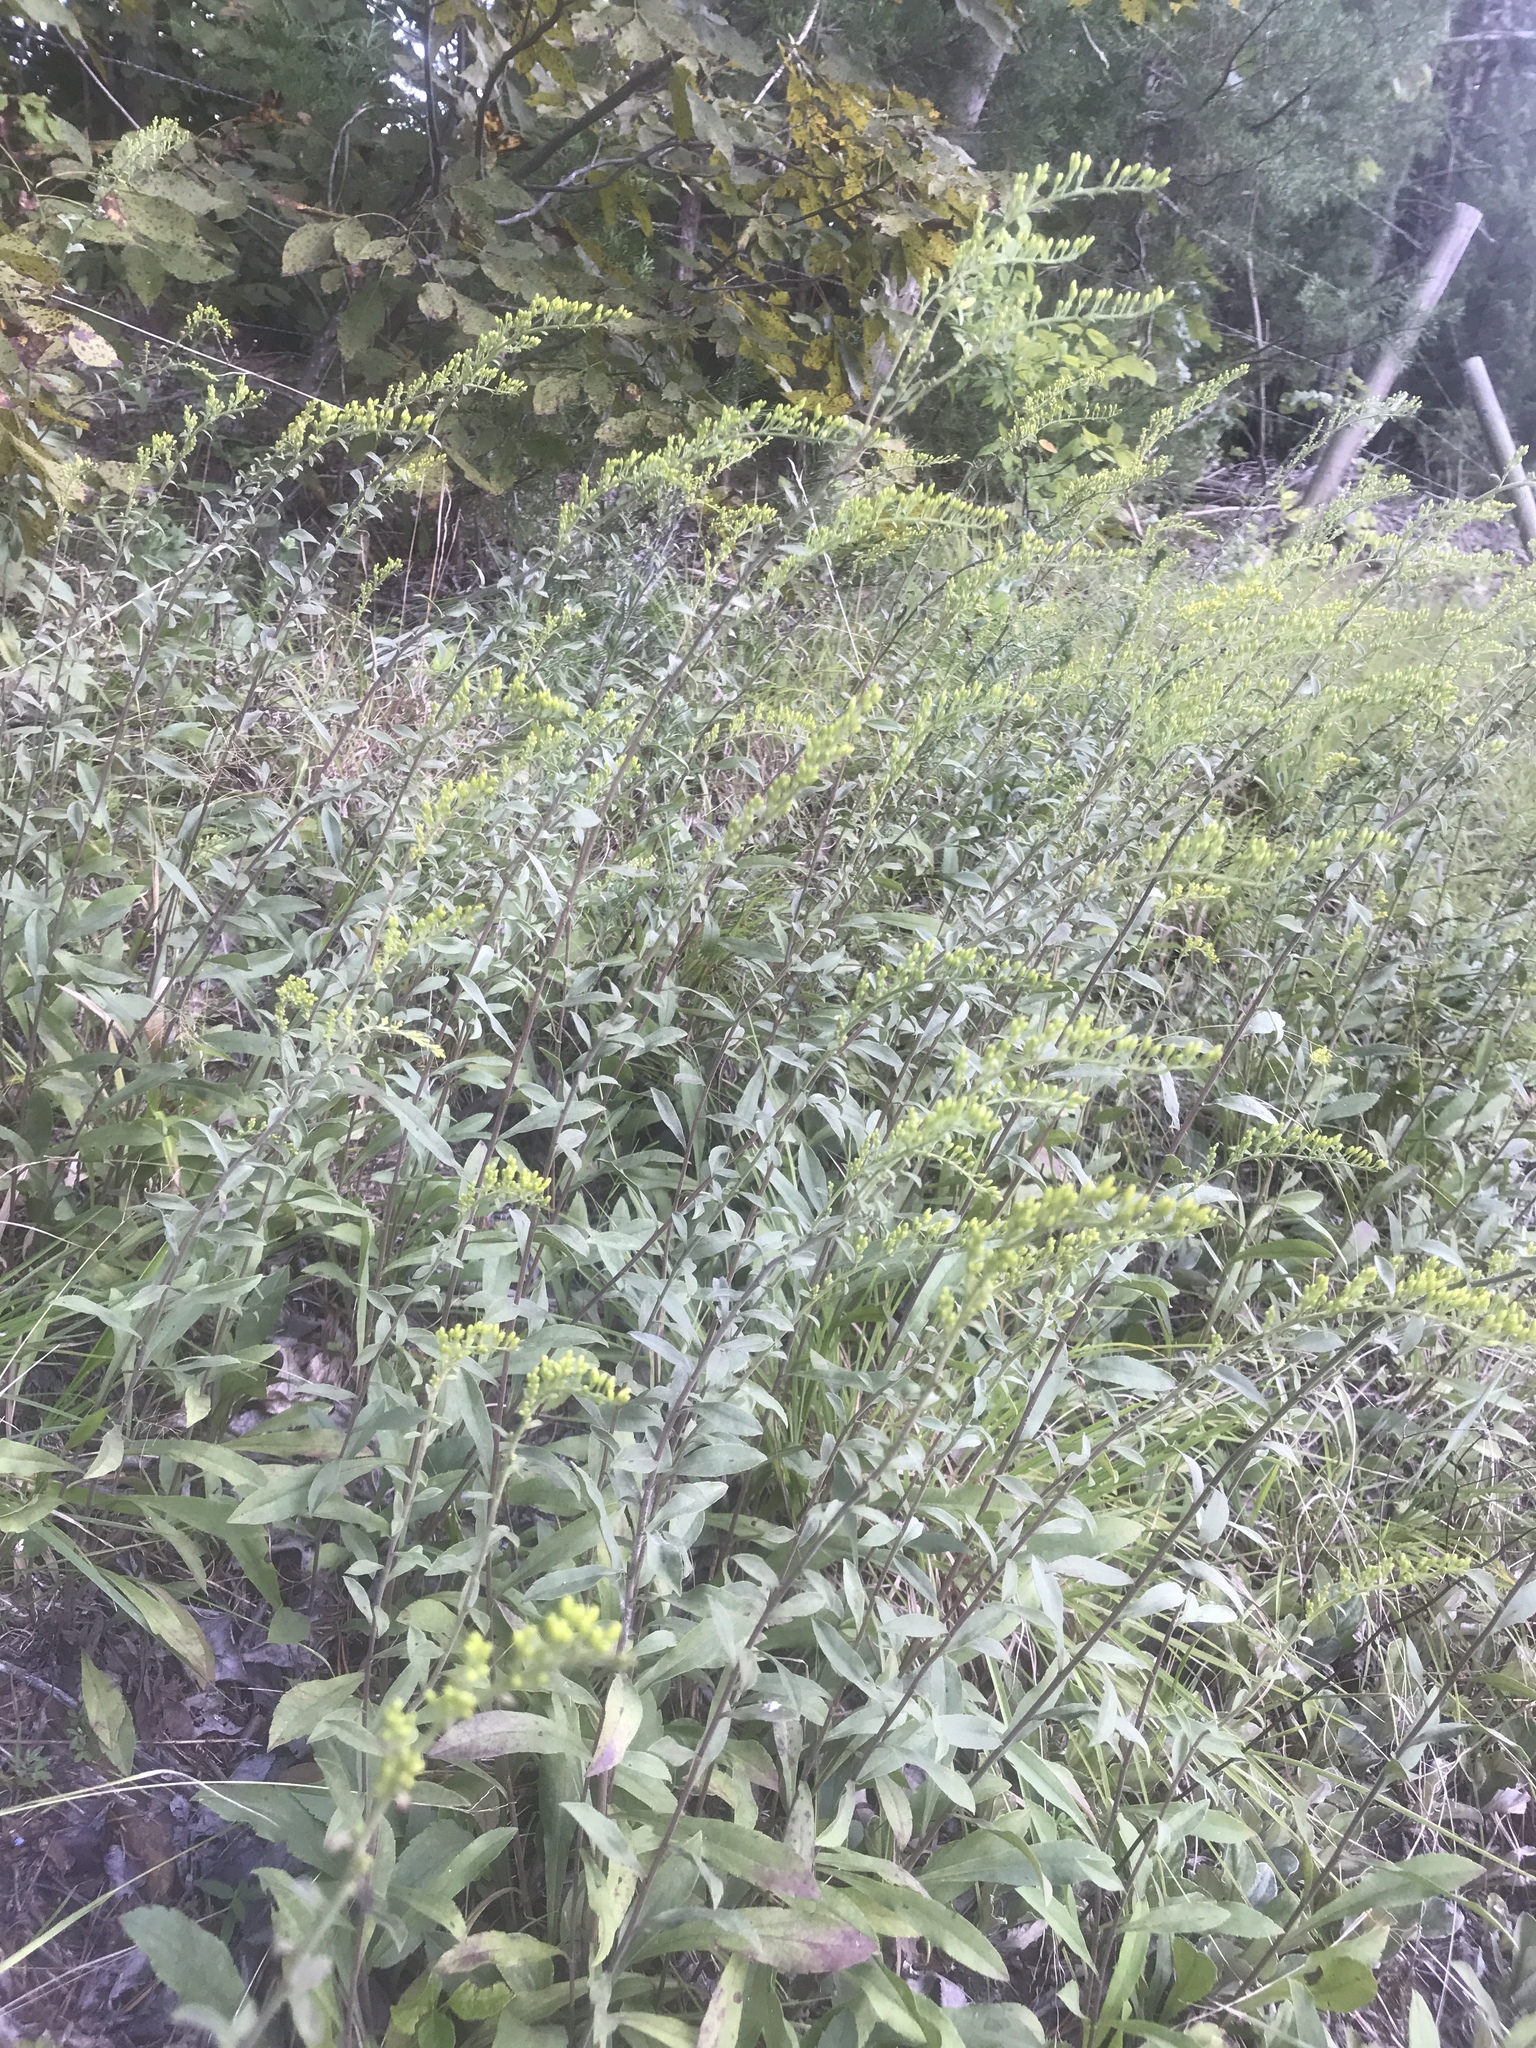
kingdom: Plantae
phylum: Tracheophyta
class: Magnoliopsida
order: Asterales
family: Asteraceae
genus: Solidago
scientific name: Solidago nemoralis
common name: Grey goldenrod
